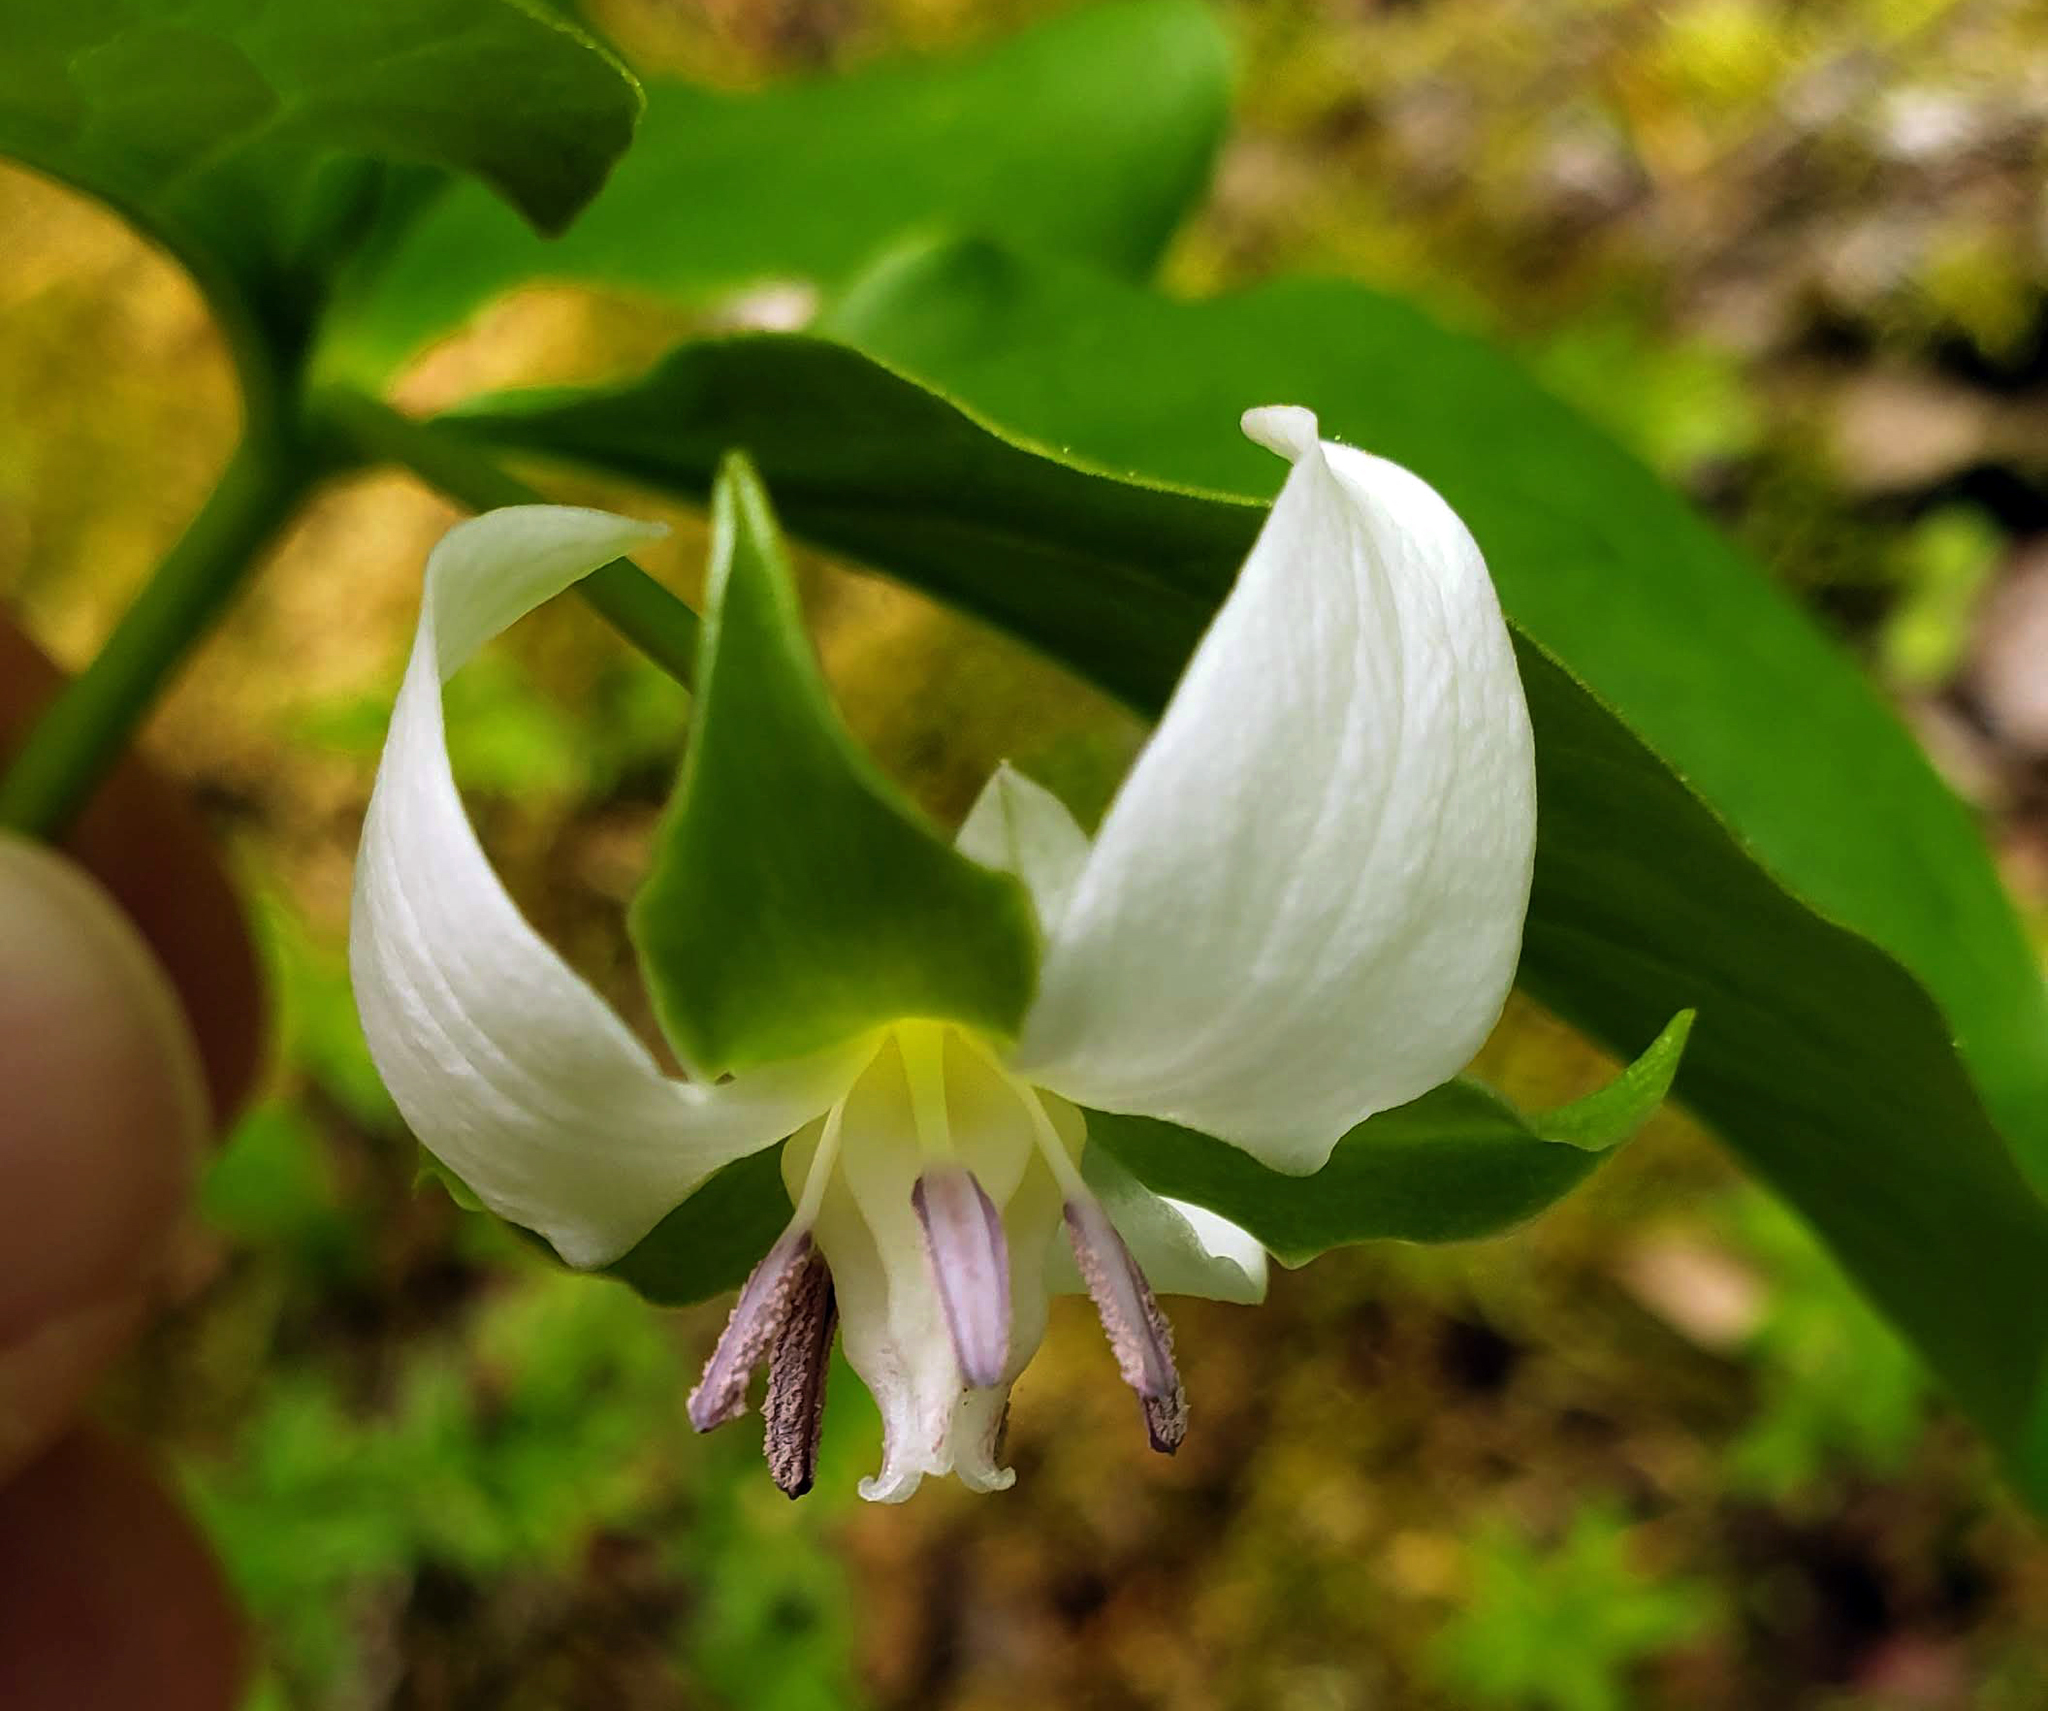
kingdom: Plantae
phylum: Tracheophyta
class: Liliopsida
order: Liliales
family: Melanthiaceae
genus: Trillium
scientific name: Trillium cernuum
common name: Nodding trillium
